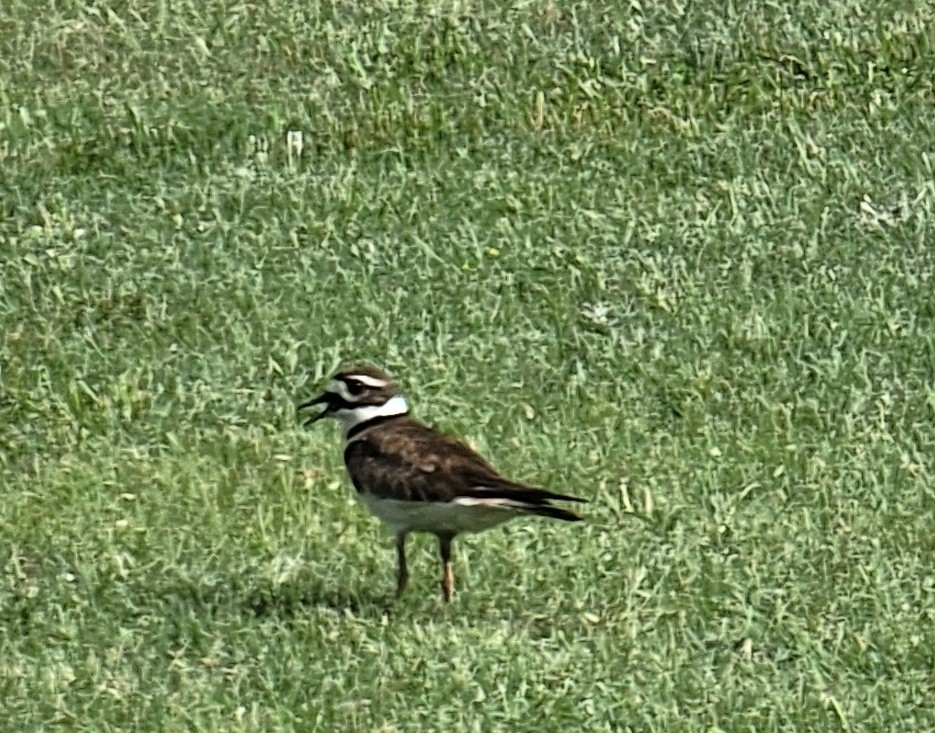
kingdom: Animalia
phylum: Chordata
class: Aves
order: Charadriiformes
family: Charadriidae
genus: Charadrius
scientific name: Charadrius vociferus
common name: Killdeer
